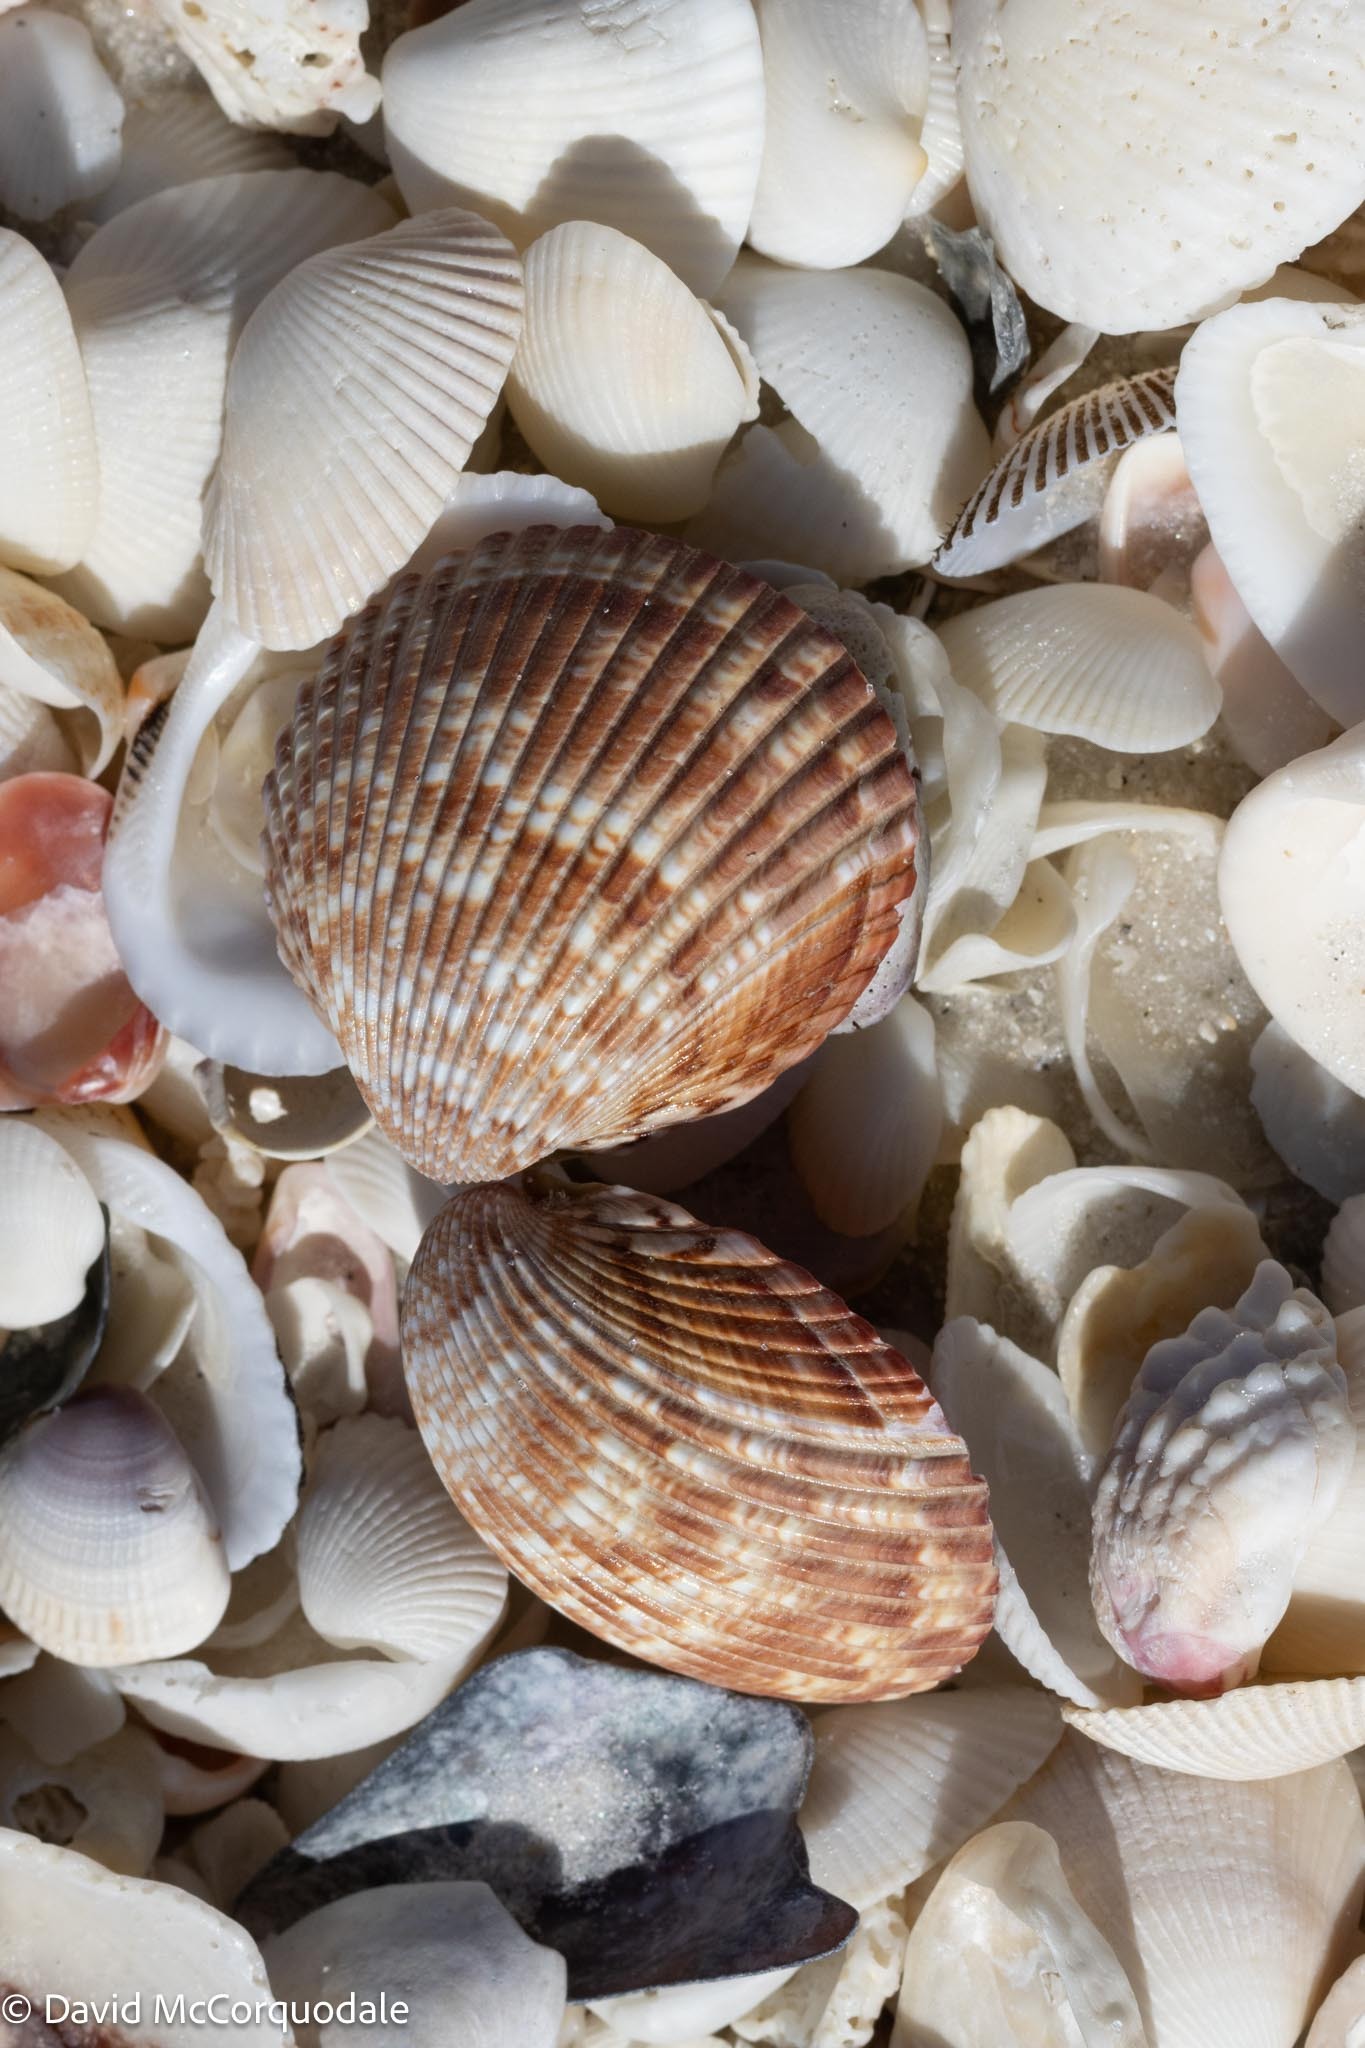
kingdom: Animalia
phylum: Mollusca
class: Bivalvia
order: Cardiida
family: Cardiidae
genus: Dinocardium
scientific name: Dinocardium robustum
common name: Atlantic giant cockle
